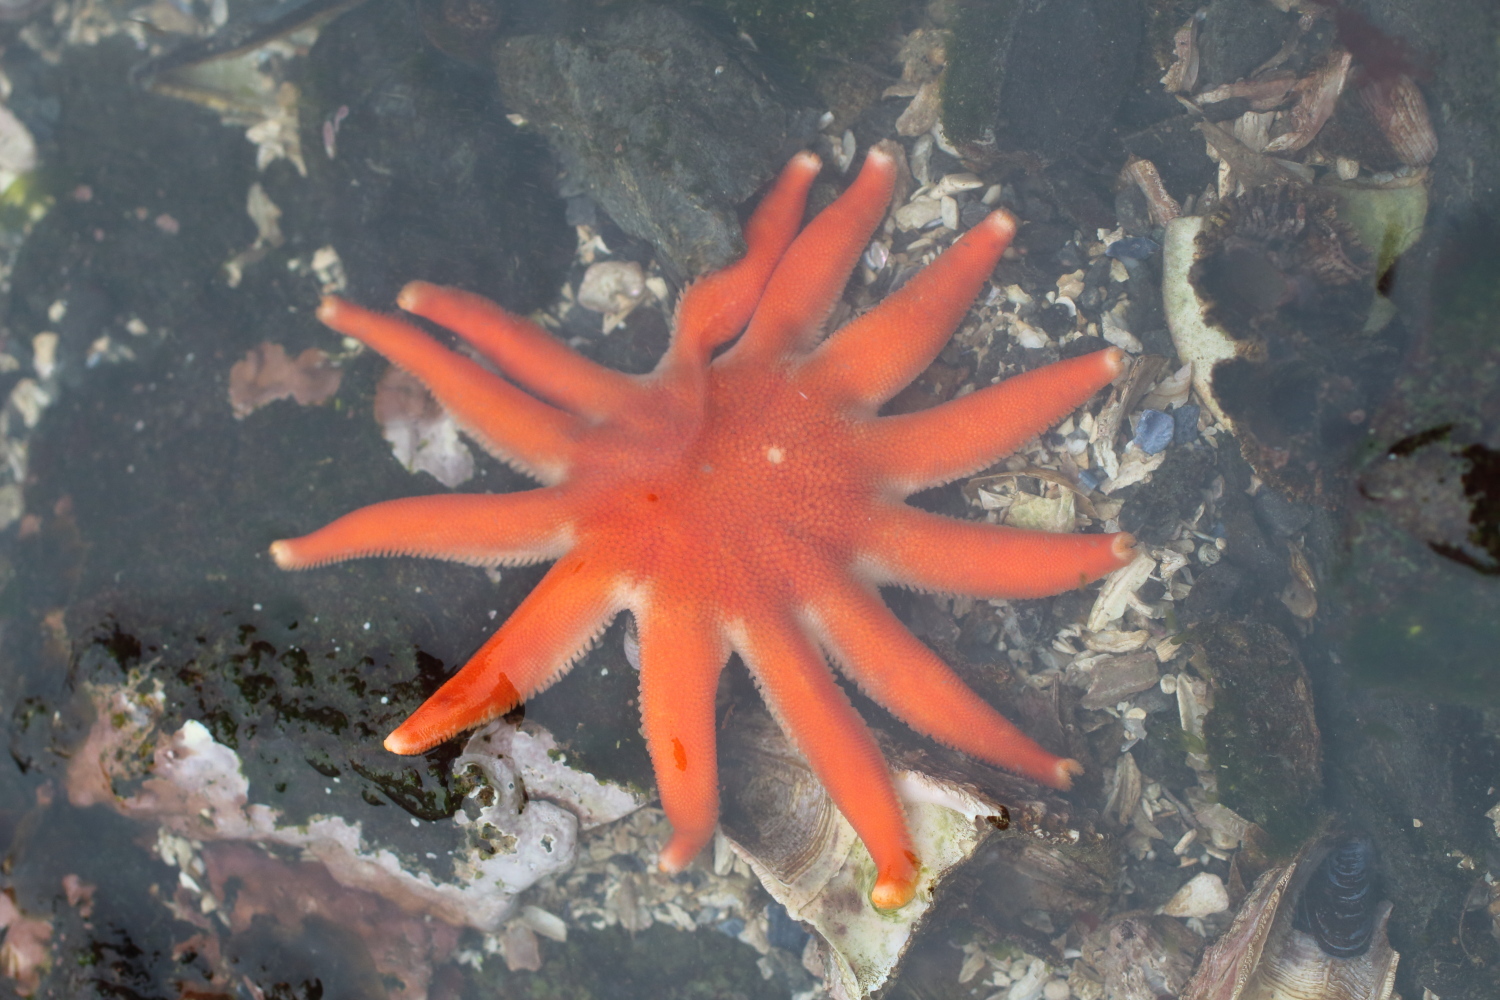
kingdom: Animalia
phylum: Echinodermata
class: Asteroidea
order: Valvatida
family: Solasteridae
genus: Solaster
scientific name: Solaster dawsoni
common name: Morning sun star
